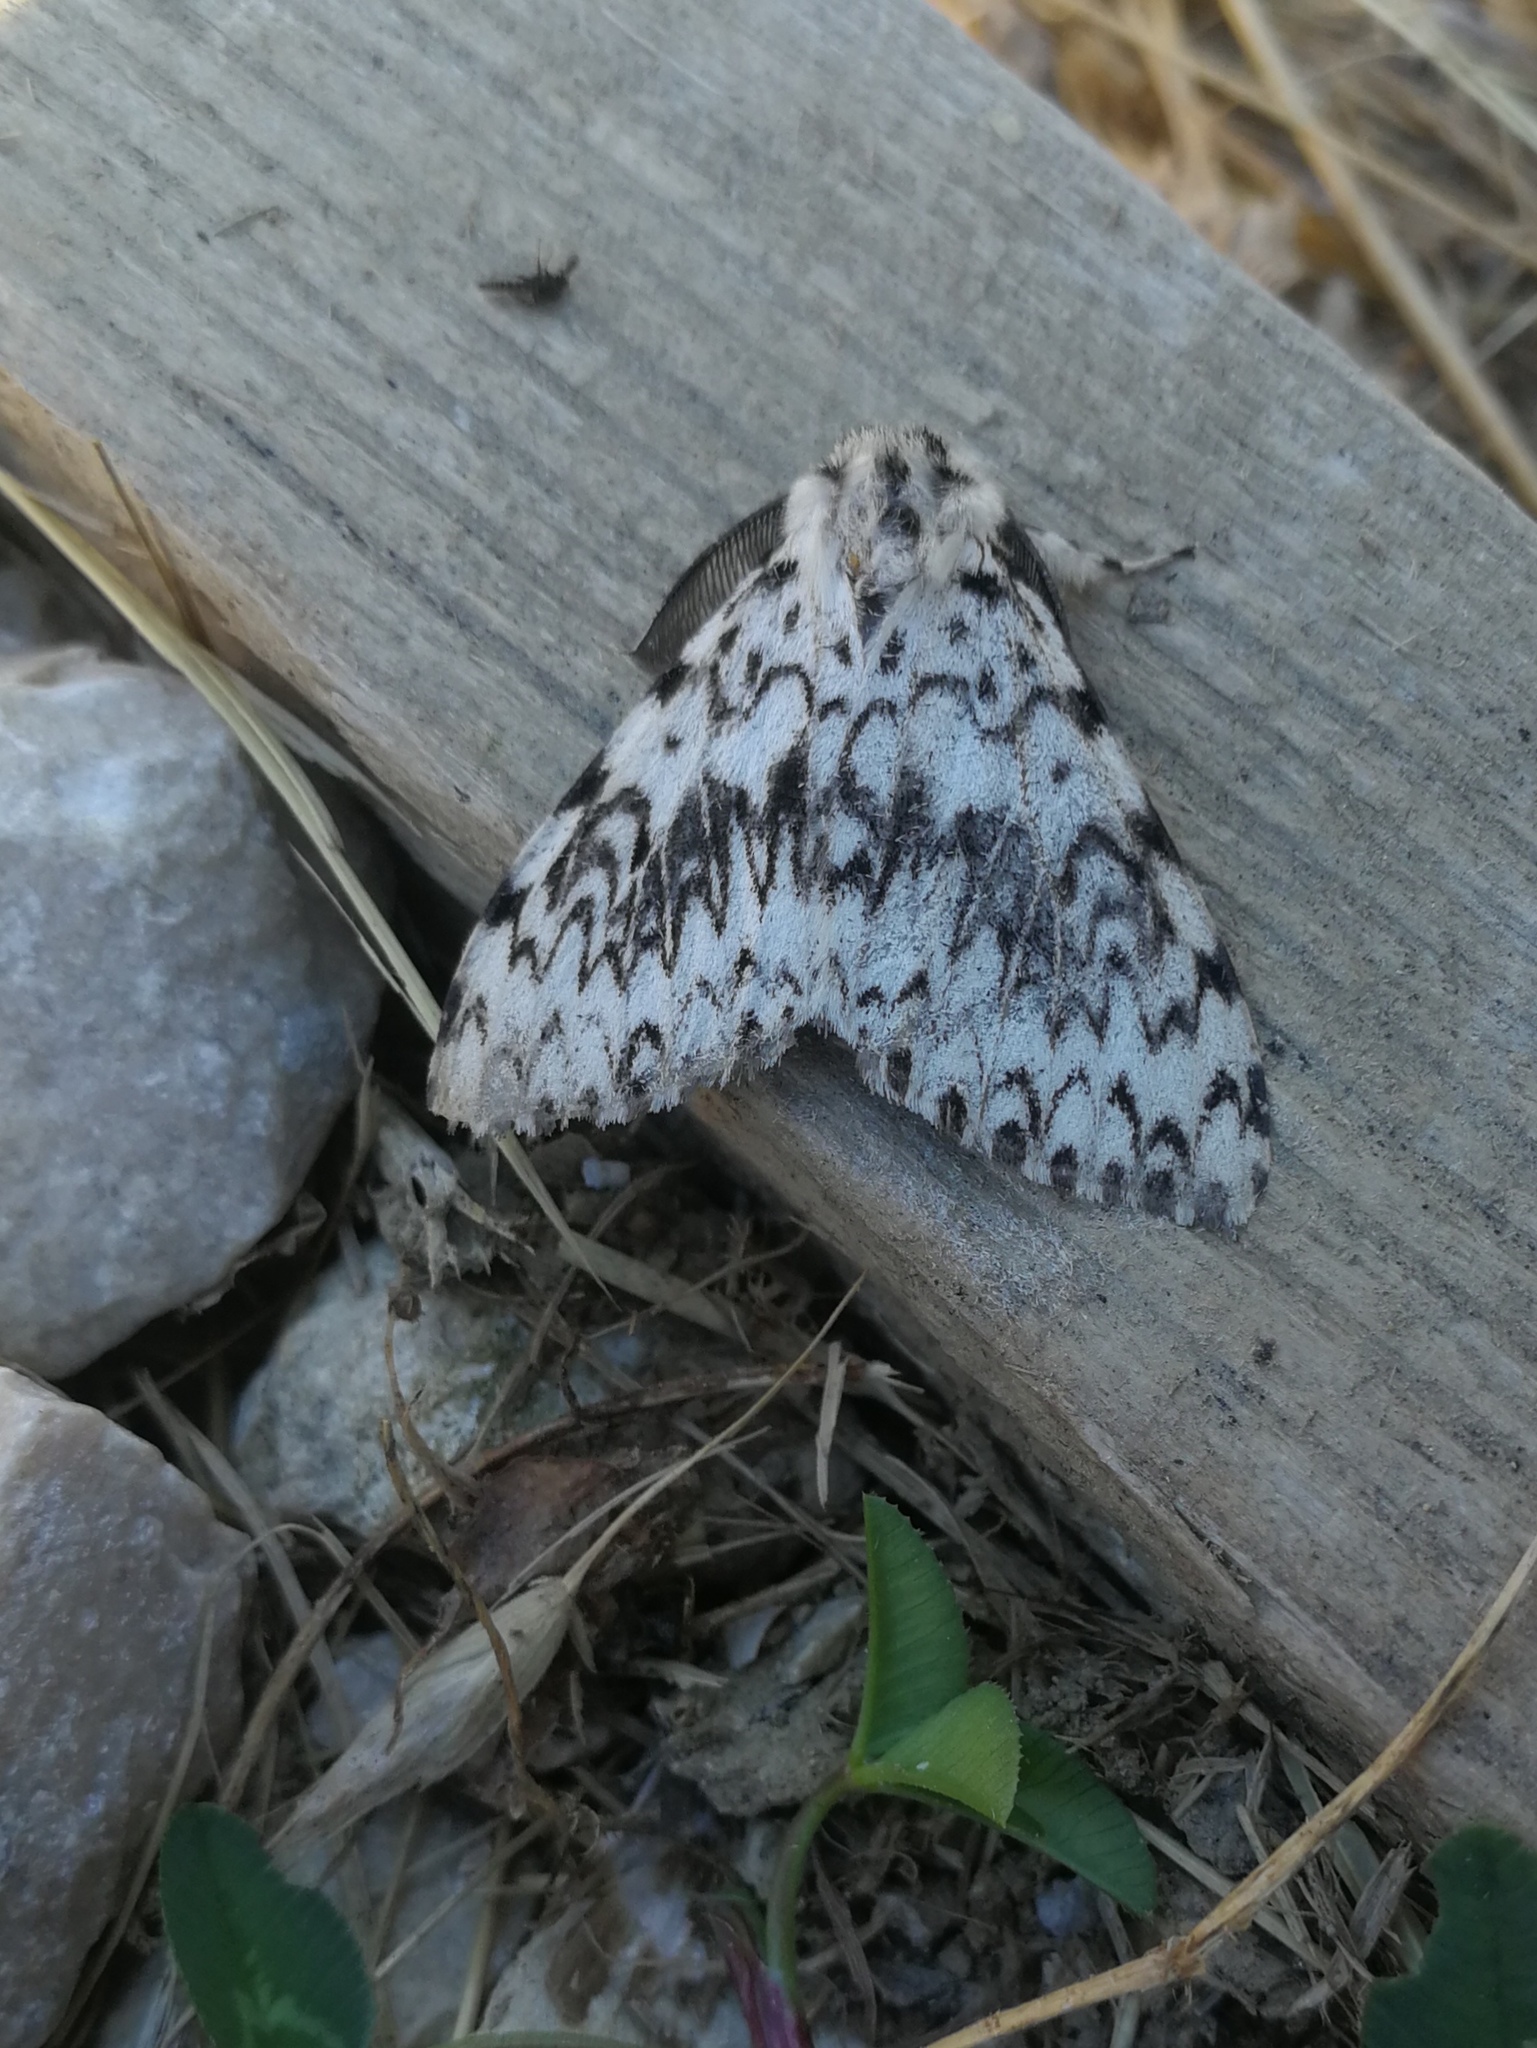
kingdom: Animalia
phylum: Arthropoda
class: Insecta
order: Lepidoptera
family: Erebidae
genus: Lymantria
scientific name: Lymantria monacha
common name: Black arches
